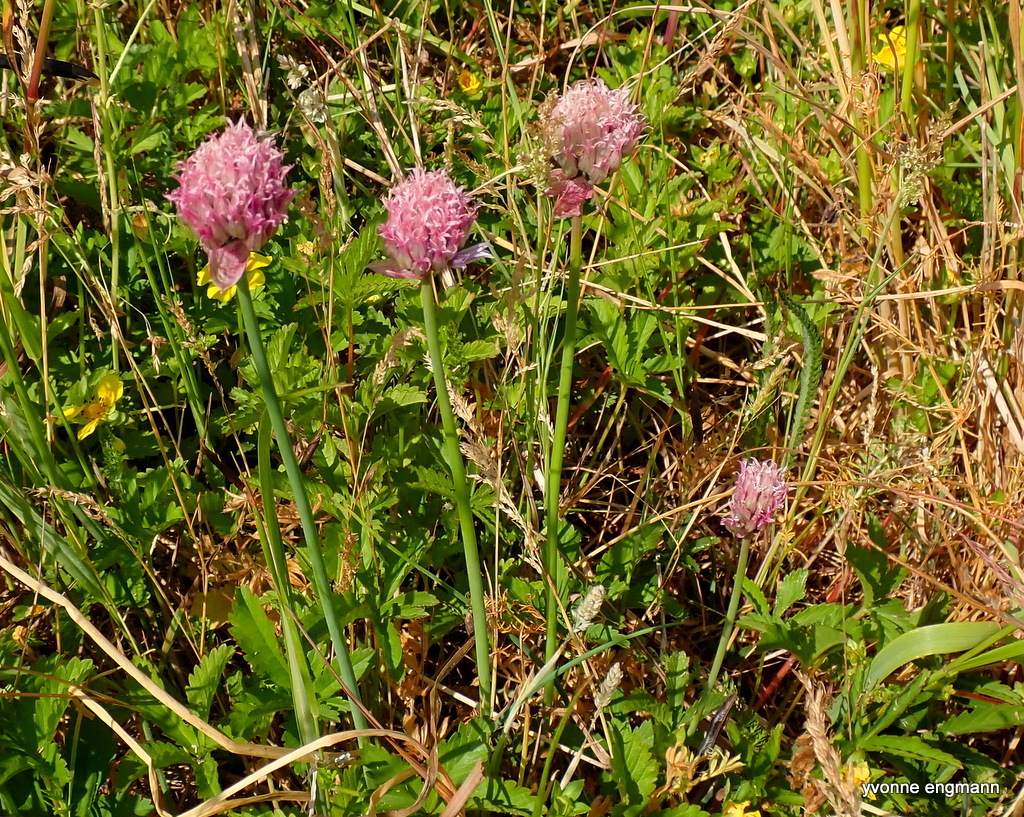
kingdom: Plantae
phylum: Tracheophyta
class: Liliopsida
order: Asparagales
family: Amaryllidaceae
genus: Allium
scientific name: Allium schoenoprasum
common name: Chives
